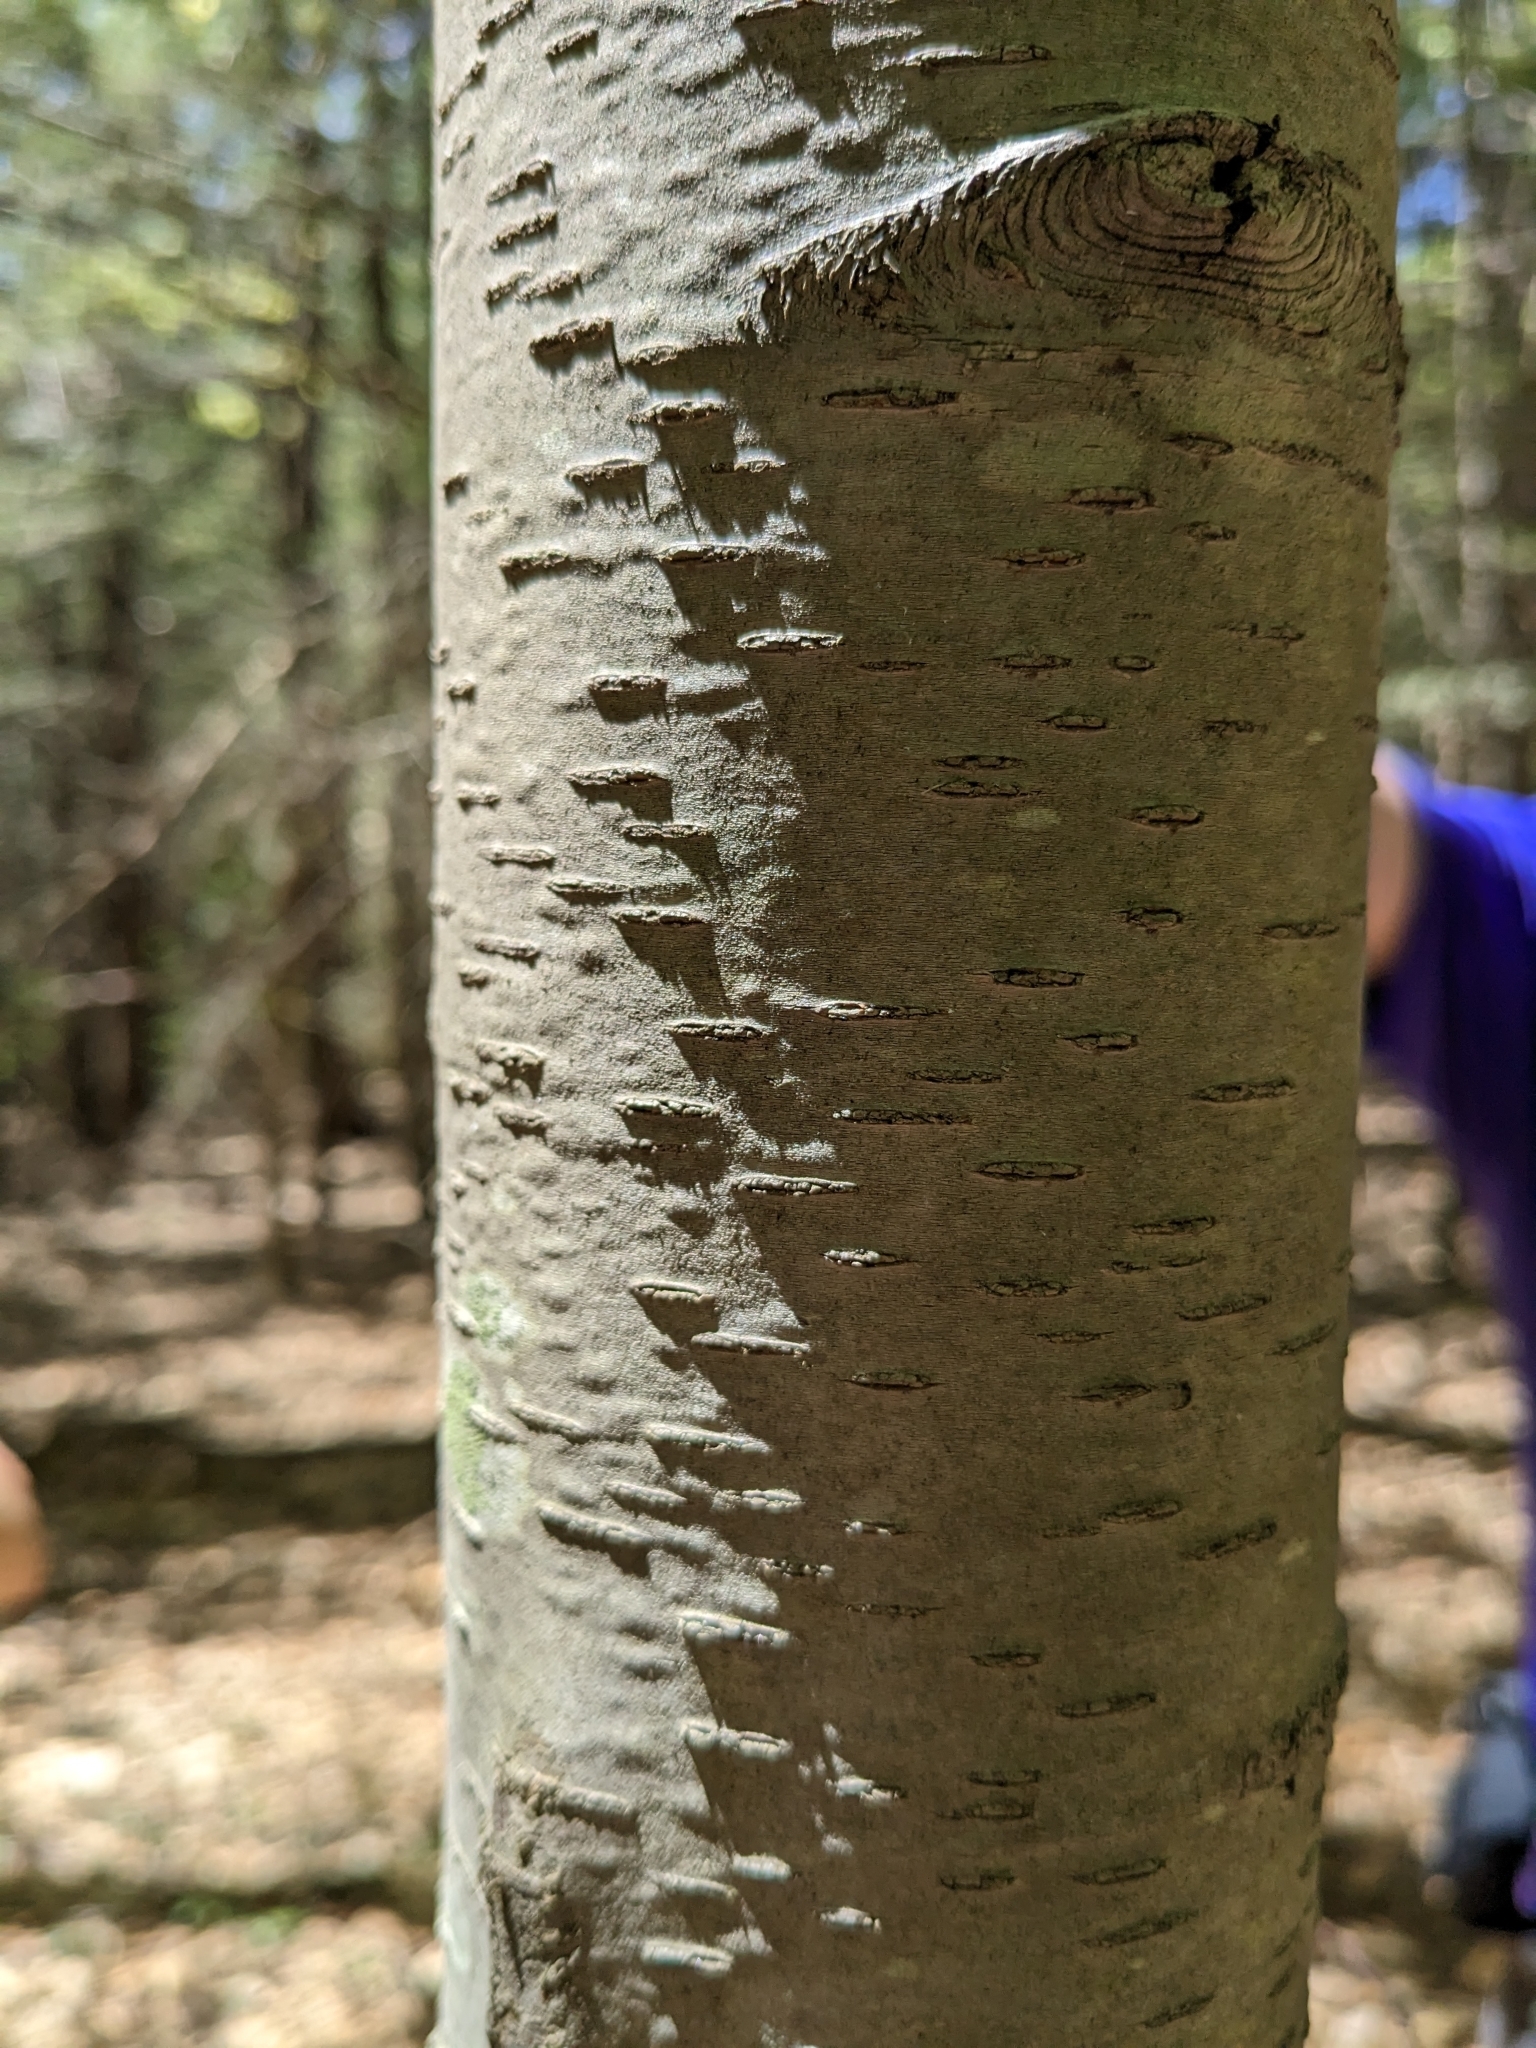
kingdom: Plantae
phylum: Tracheophyta
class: Magnoliopsida
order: Fagales
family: Betulaceae
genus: Betula
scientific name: Betula lenta
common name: Black birch
